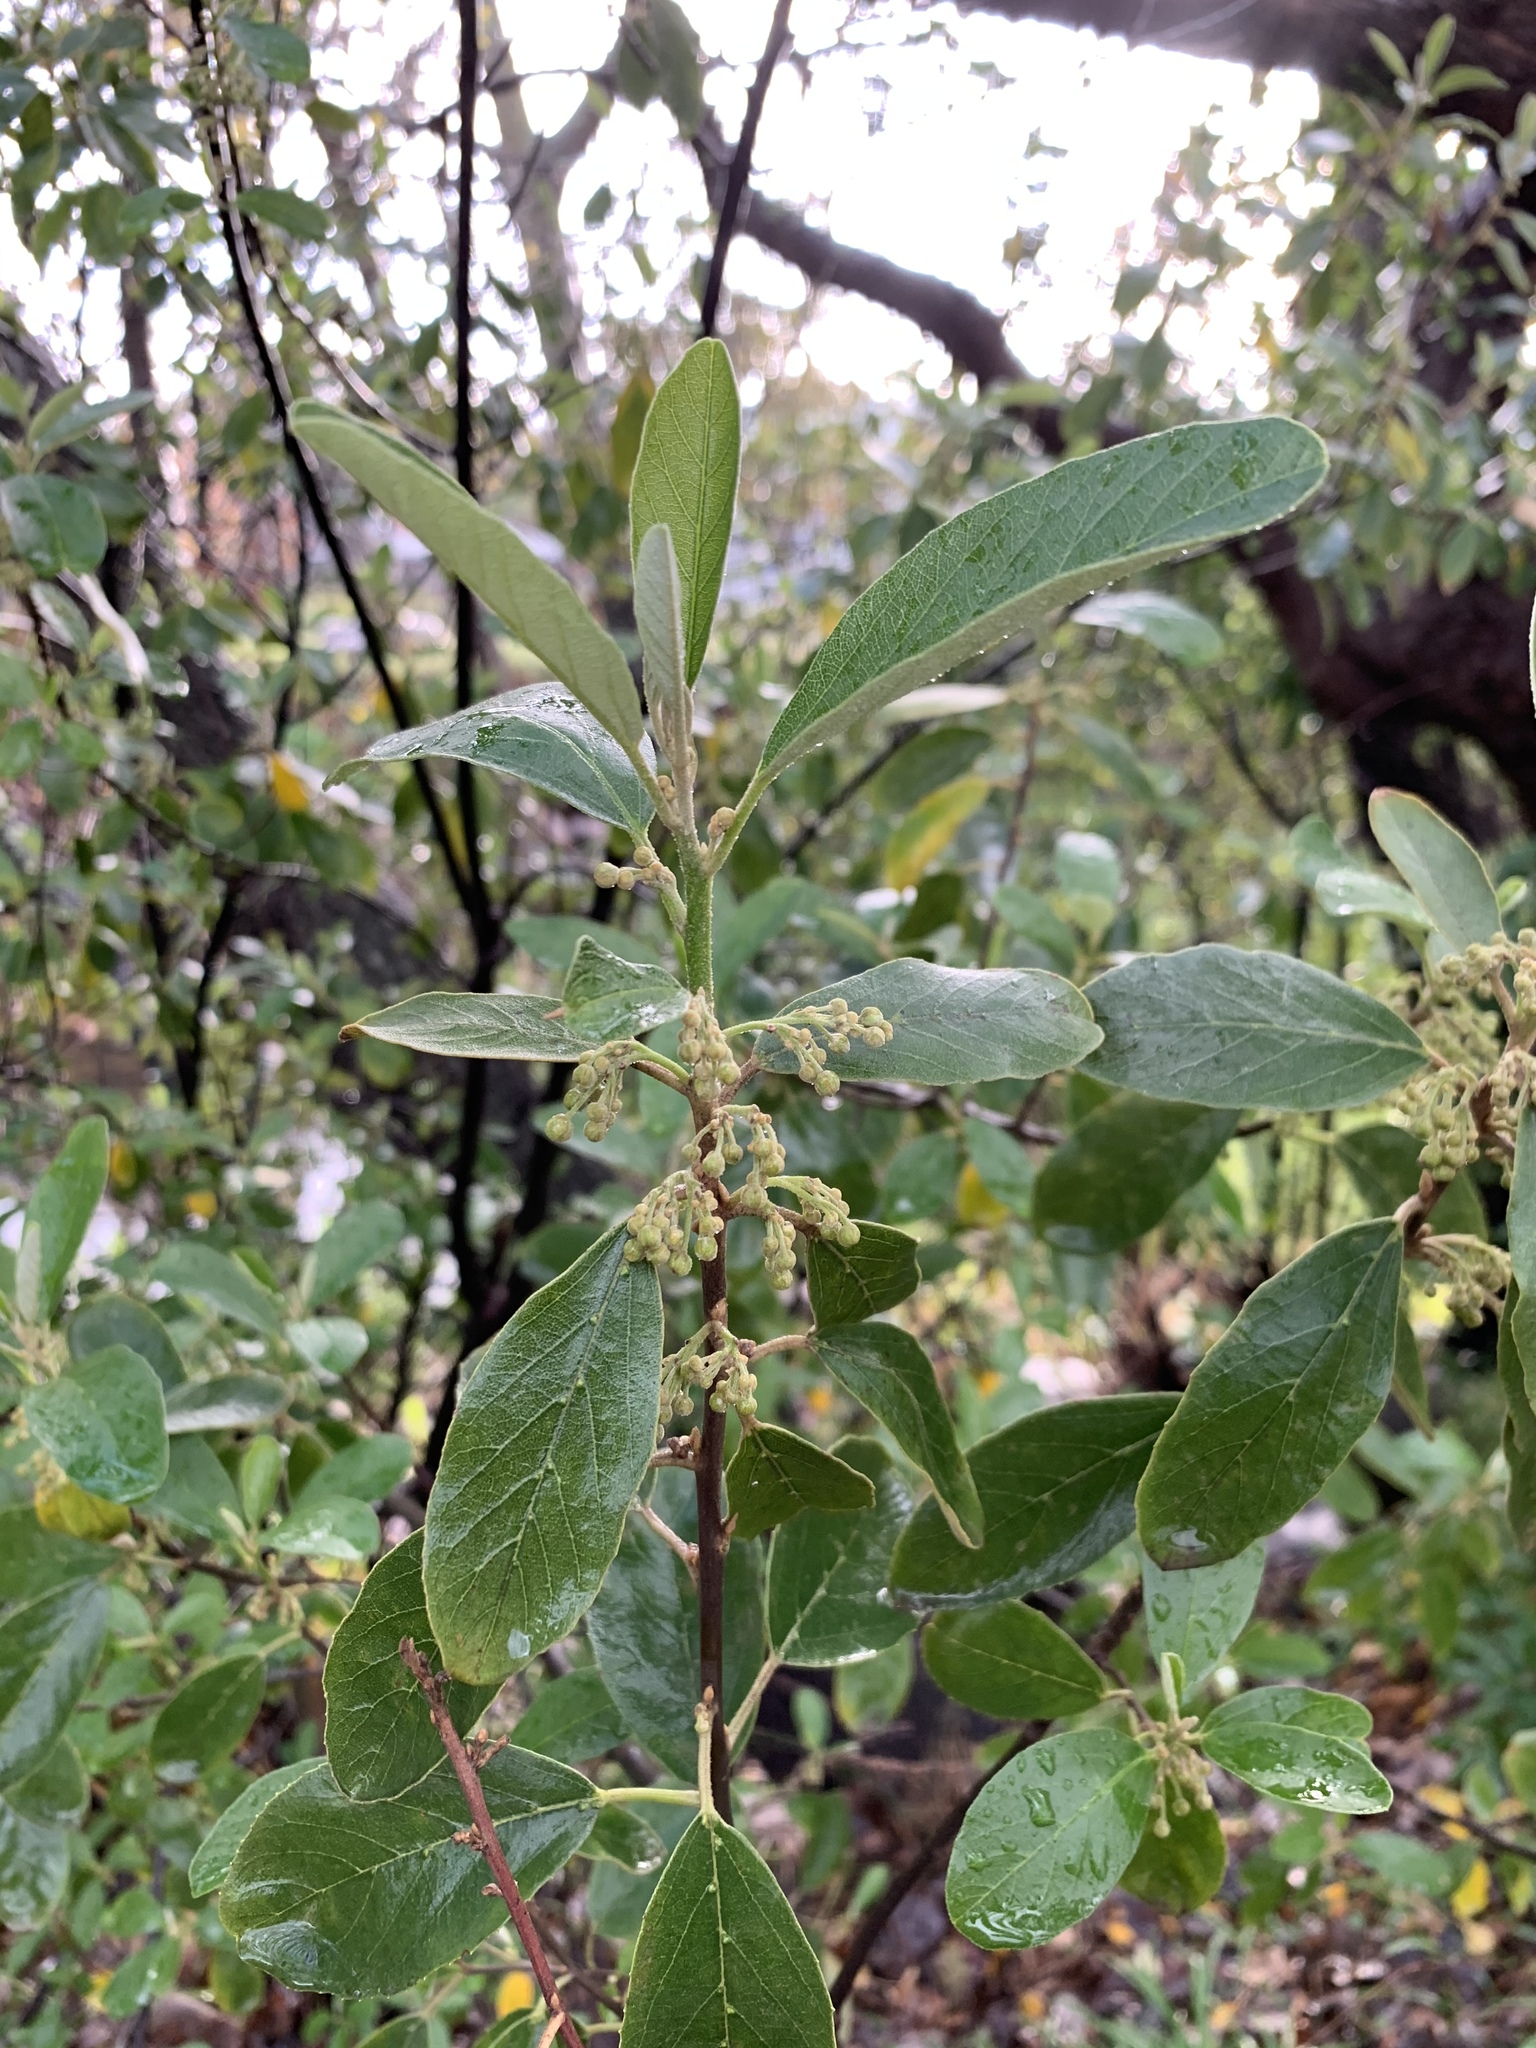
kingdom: Plantae
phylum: Tracheophyta
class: Magnoliopsida
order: Malpighiales
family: Achariaceae
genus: Kiggelaria
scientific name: Kiggelaria africana
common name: Wild peach
